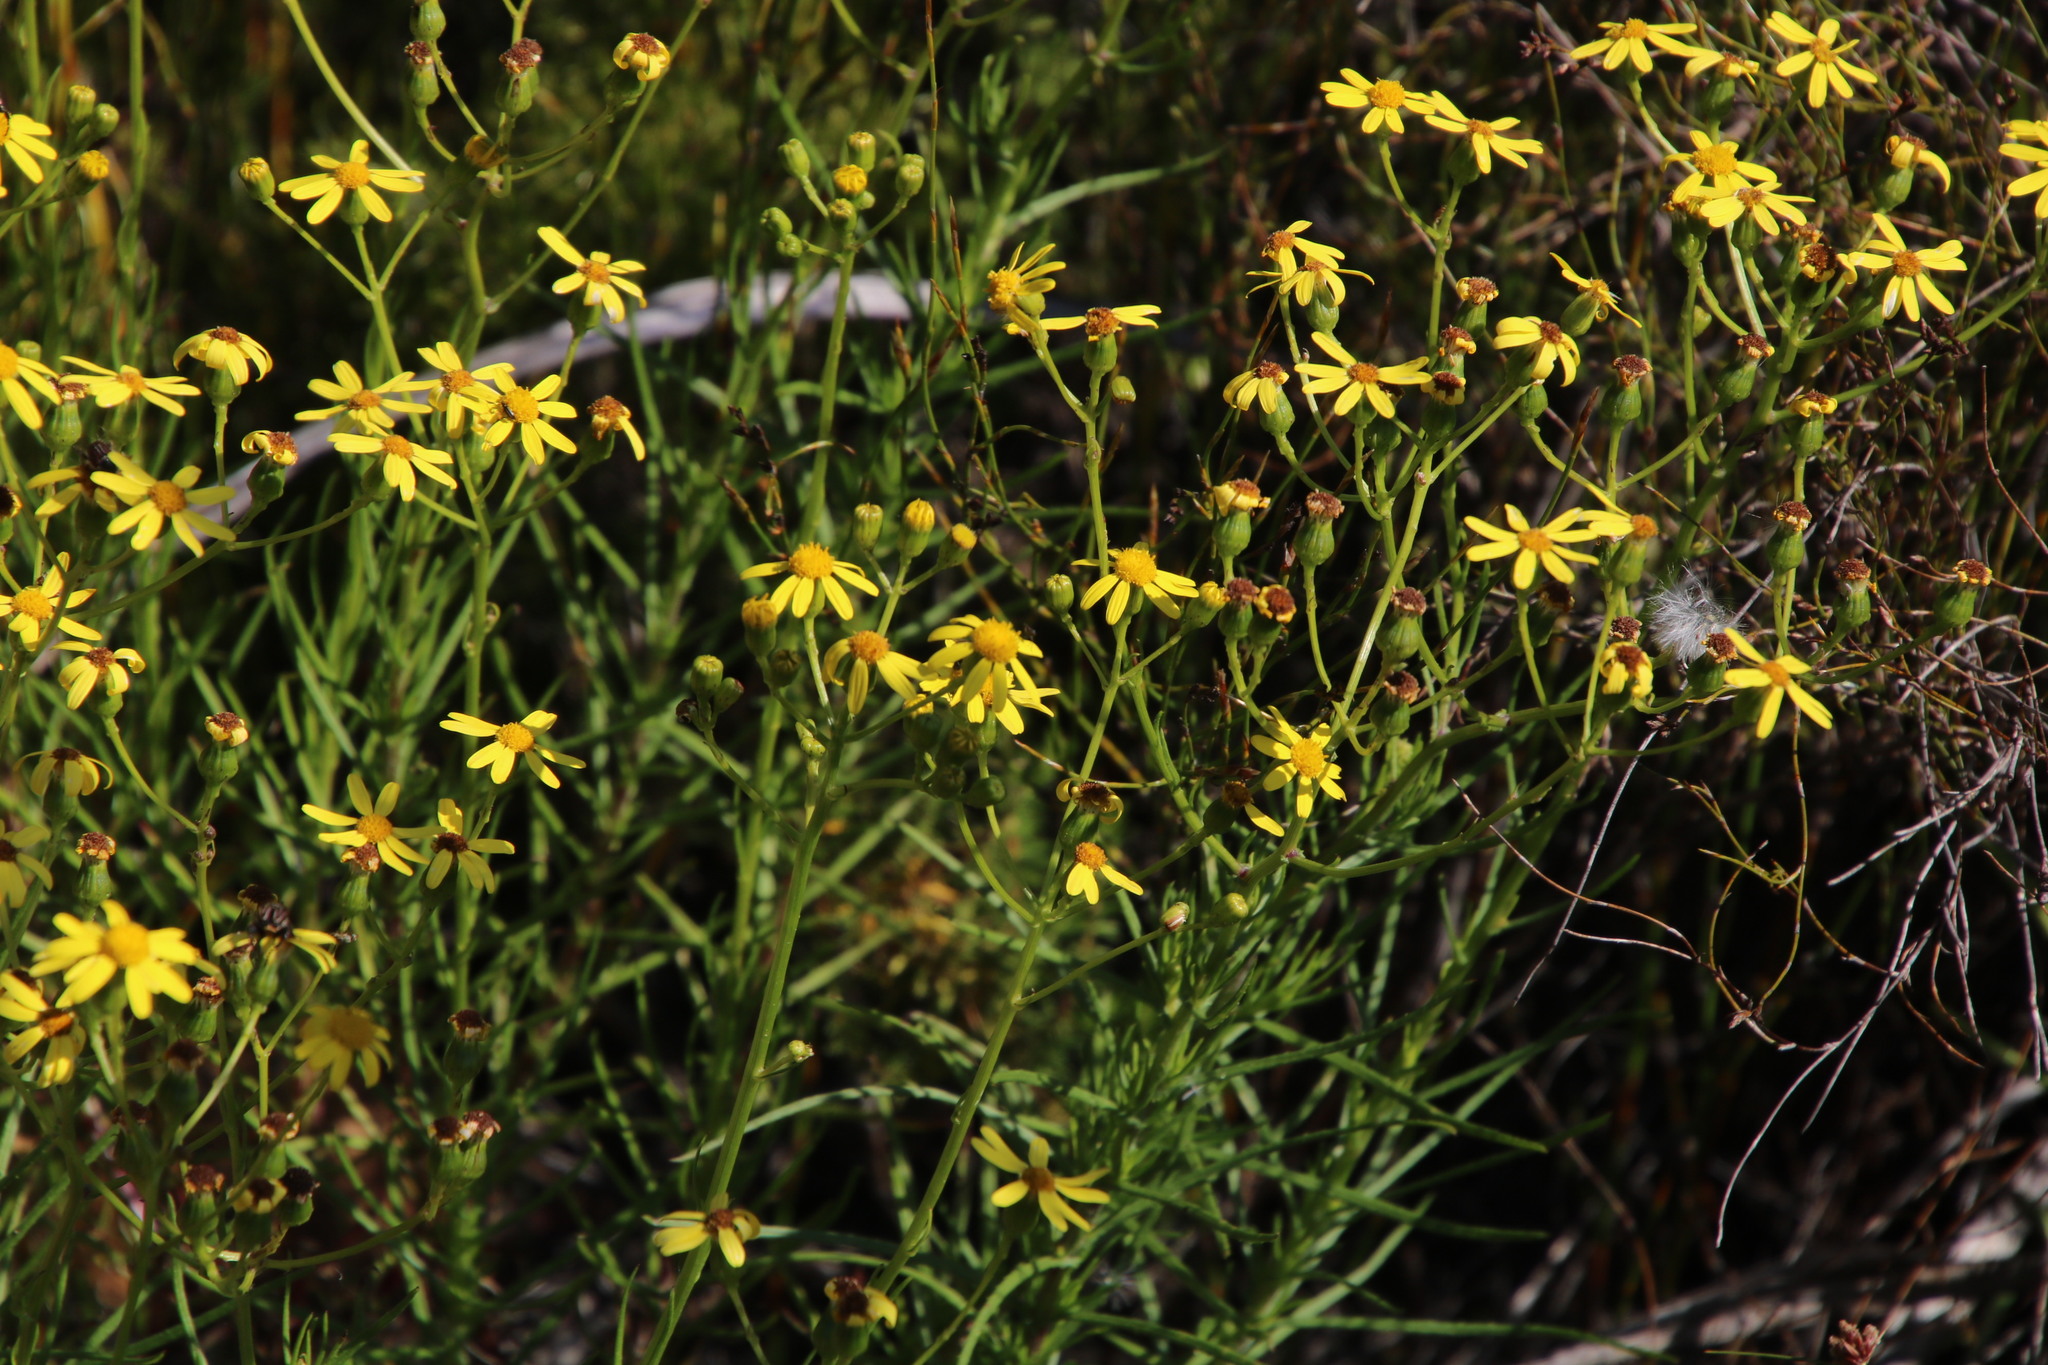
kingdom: Plantae
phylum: Tracheophyta
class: Magnoliopsida
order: Asterales
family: Asteraceae
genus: Senecio
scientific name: Senecio inaequidens
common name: Narrow-leaved ragwort
